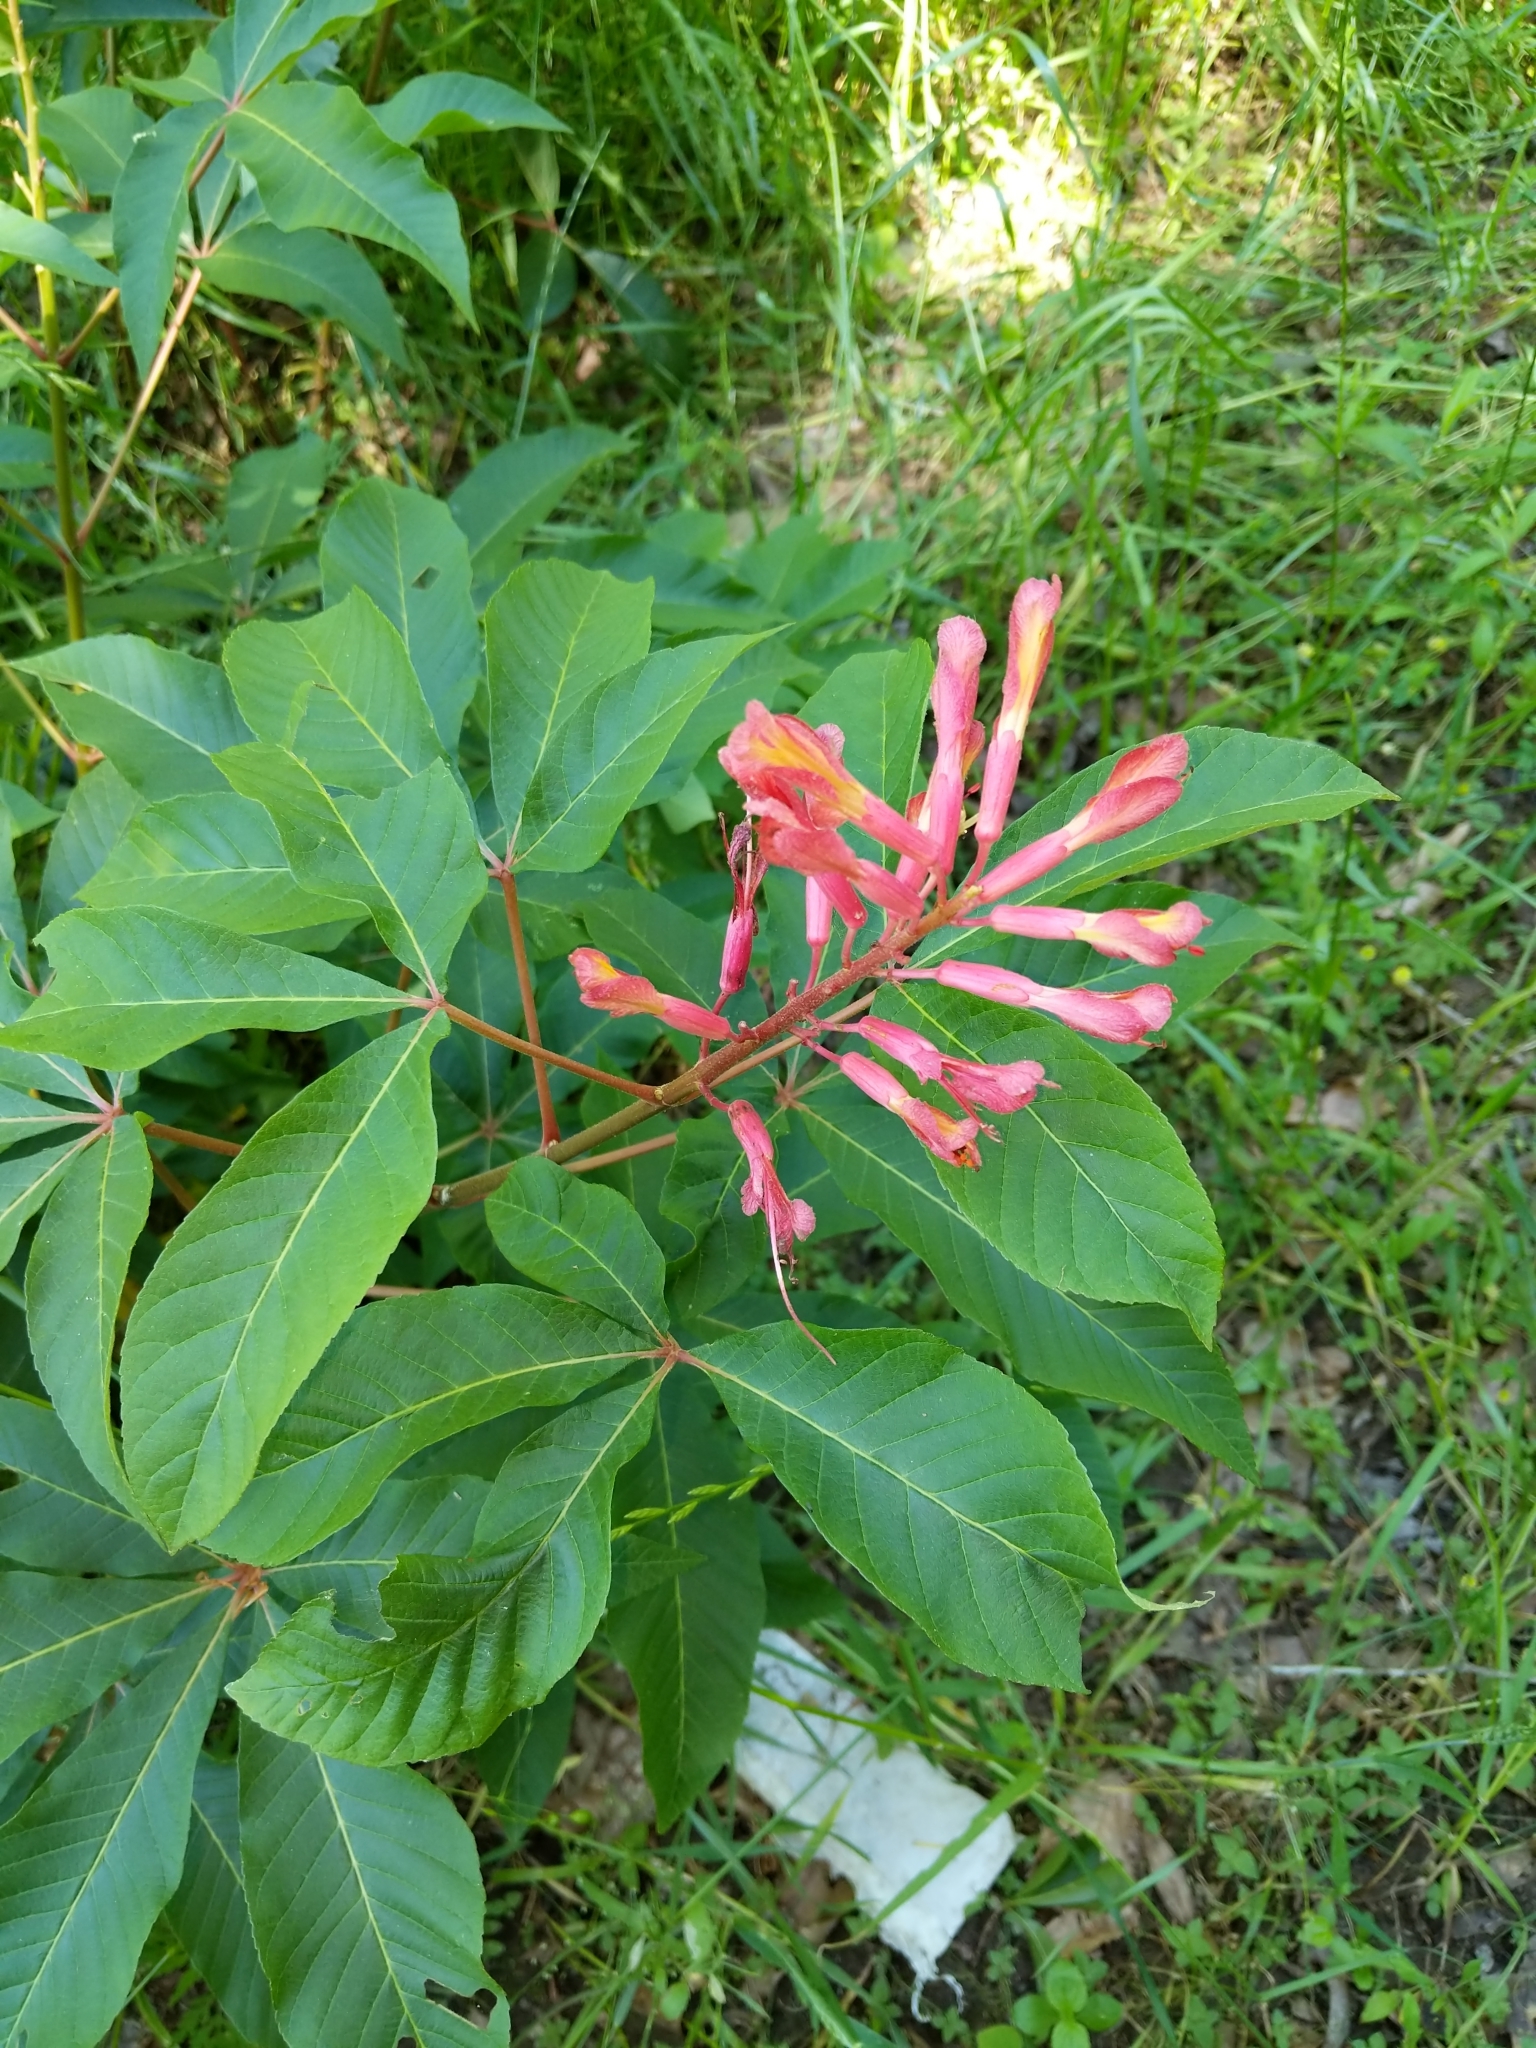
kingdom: Plantae
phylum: Tracheophyta
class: Magnoliopsida
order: Sapindales
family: Sapindaceae
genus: Aesculus
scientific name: Aesculus pavia
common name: Red buckeye
